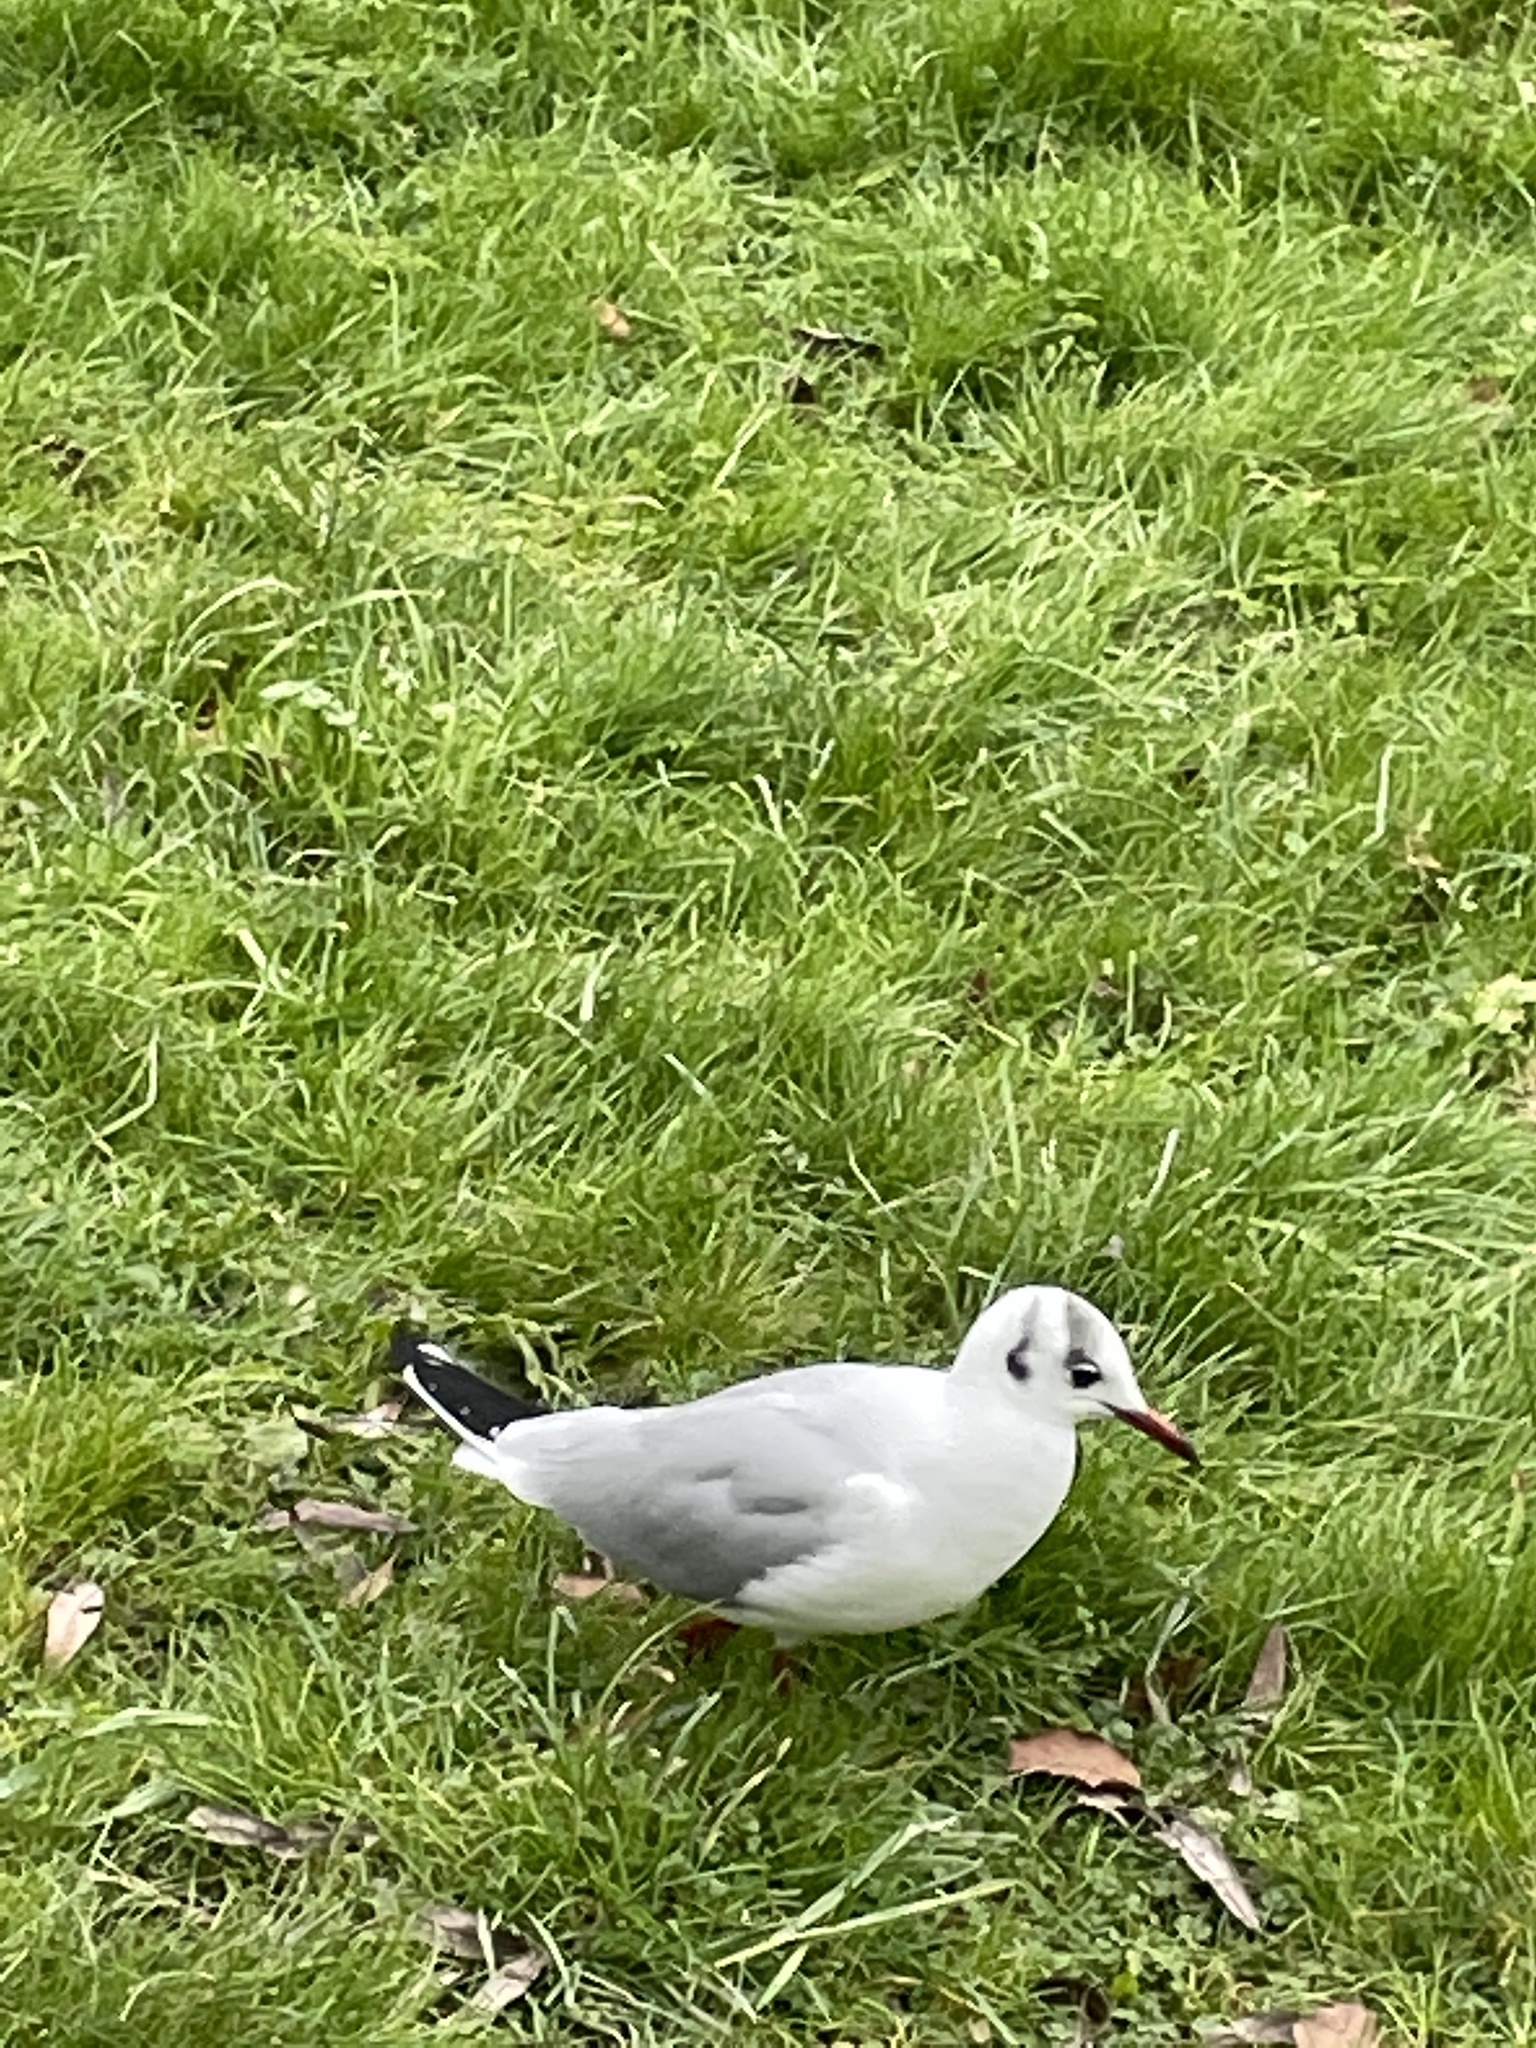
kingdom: Animalia
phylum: Chordata
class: Aves
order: Charadriiformes
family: Laridae
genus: Chroicocephalus
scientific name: Chroicocephalus ridibundus
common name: Black-headed gull
